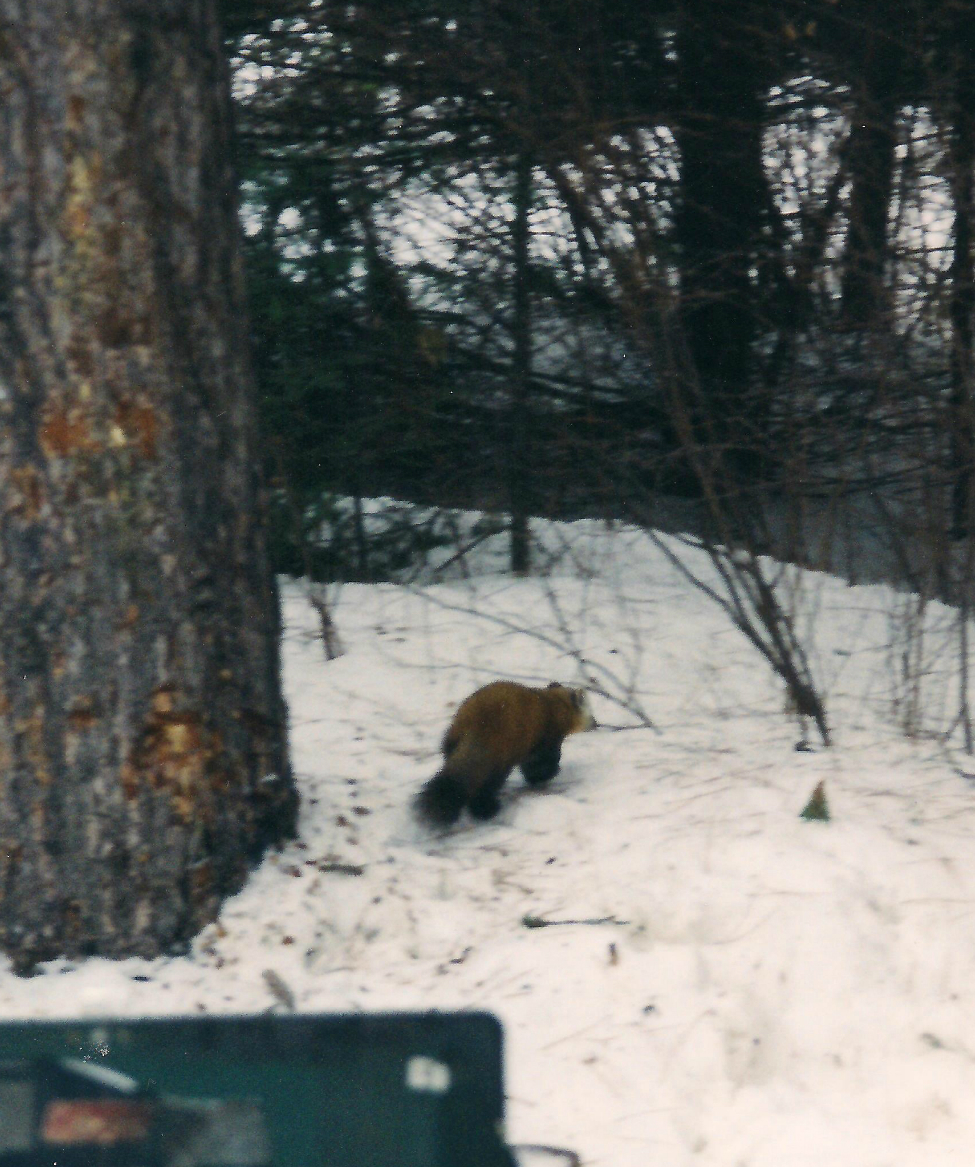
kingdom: Animalia
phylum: Chordata
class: Mammalia
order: Carnivora
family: Mustelidae
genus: Martes
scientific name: Martes americana
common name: American marten
